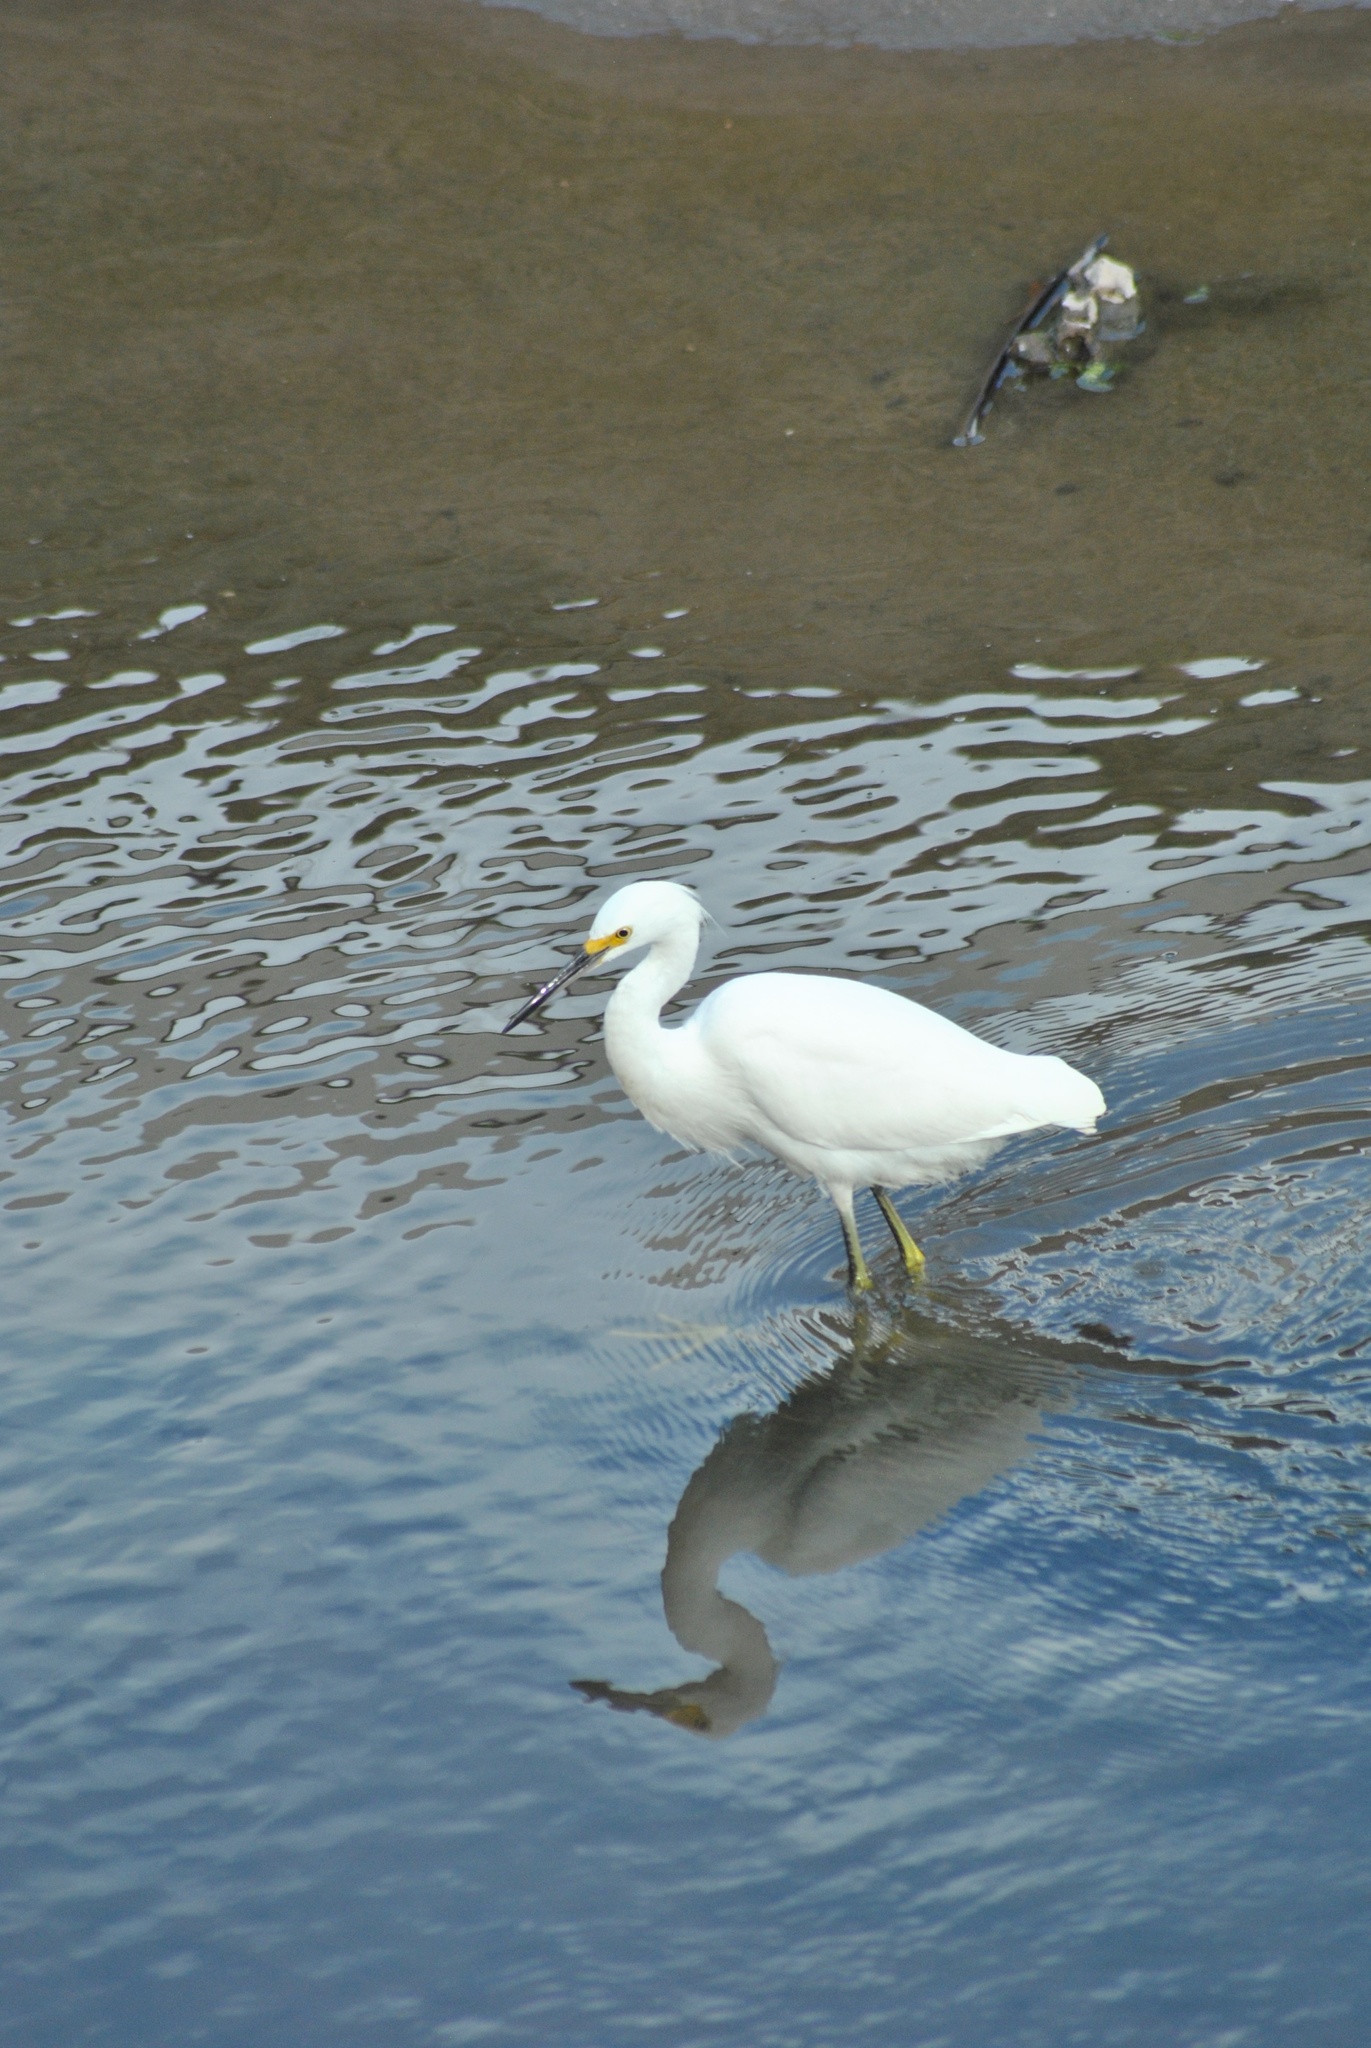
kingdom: Animalia
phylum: Chordata
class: Aves
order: Pelecaniformes
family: Ardeidae
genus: Egretta
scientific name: Egretta thula
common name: Snowy egret
